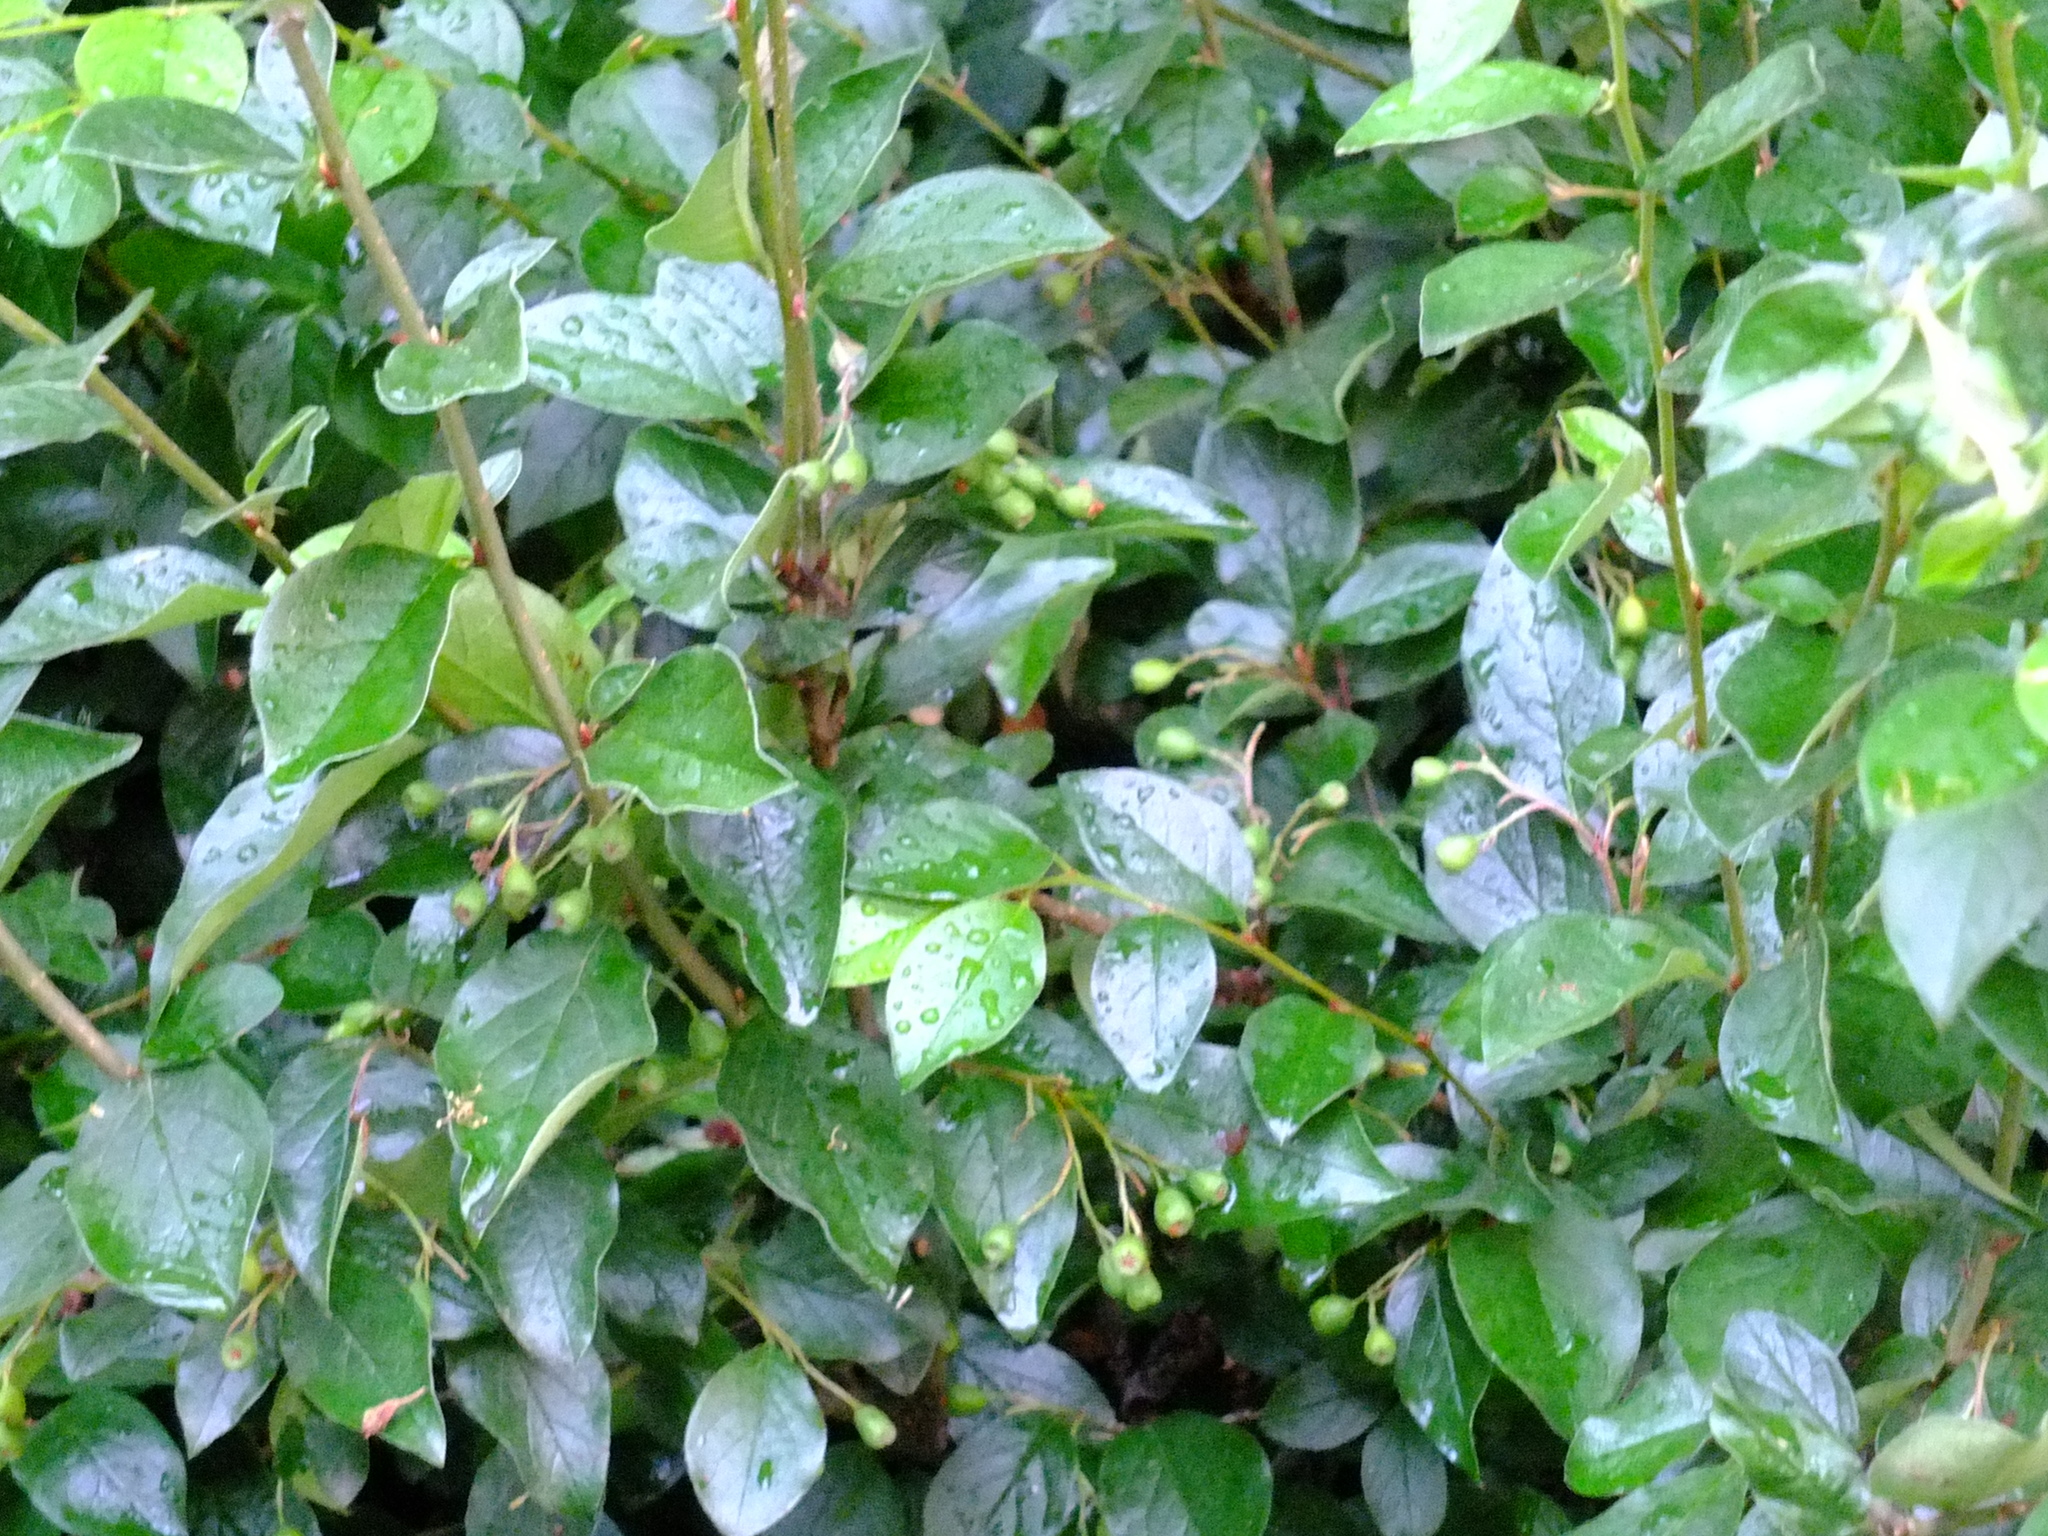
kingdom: Plantae
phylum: Tracheophyta
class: Magnoliopsida
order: Rosales
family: Rosaceae
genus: Cotoneaster
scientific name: Cotoneaster acutifolius
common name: Peking cotoneaster
